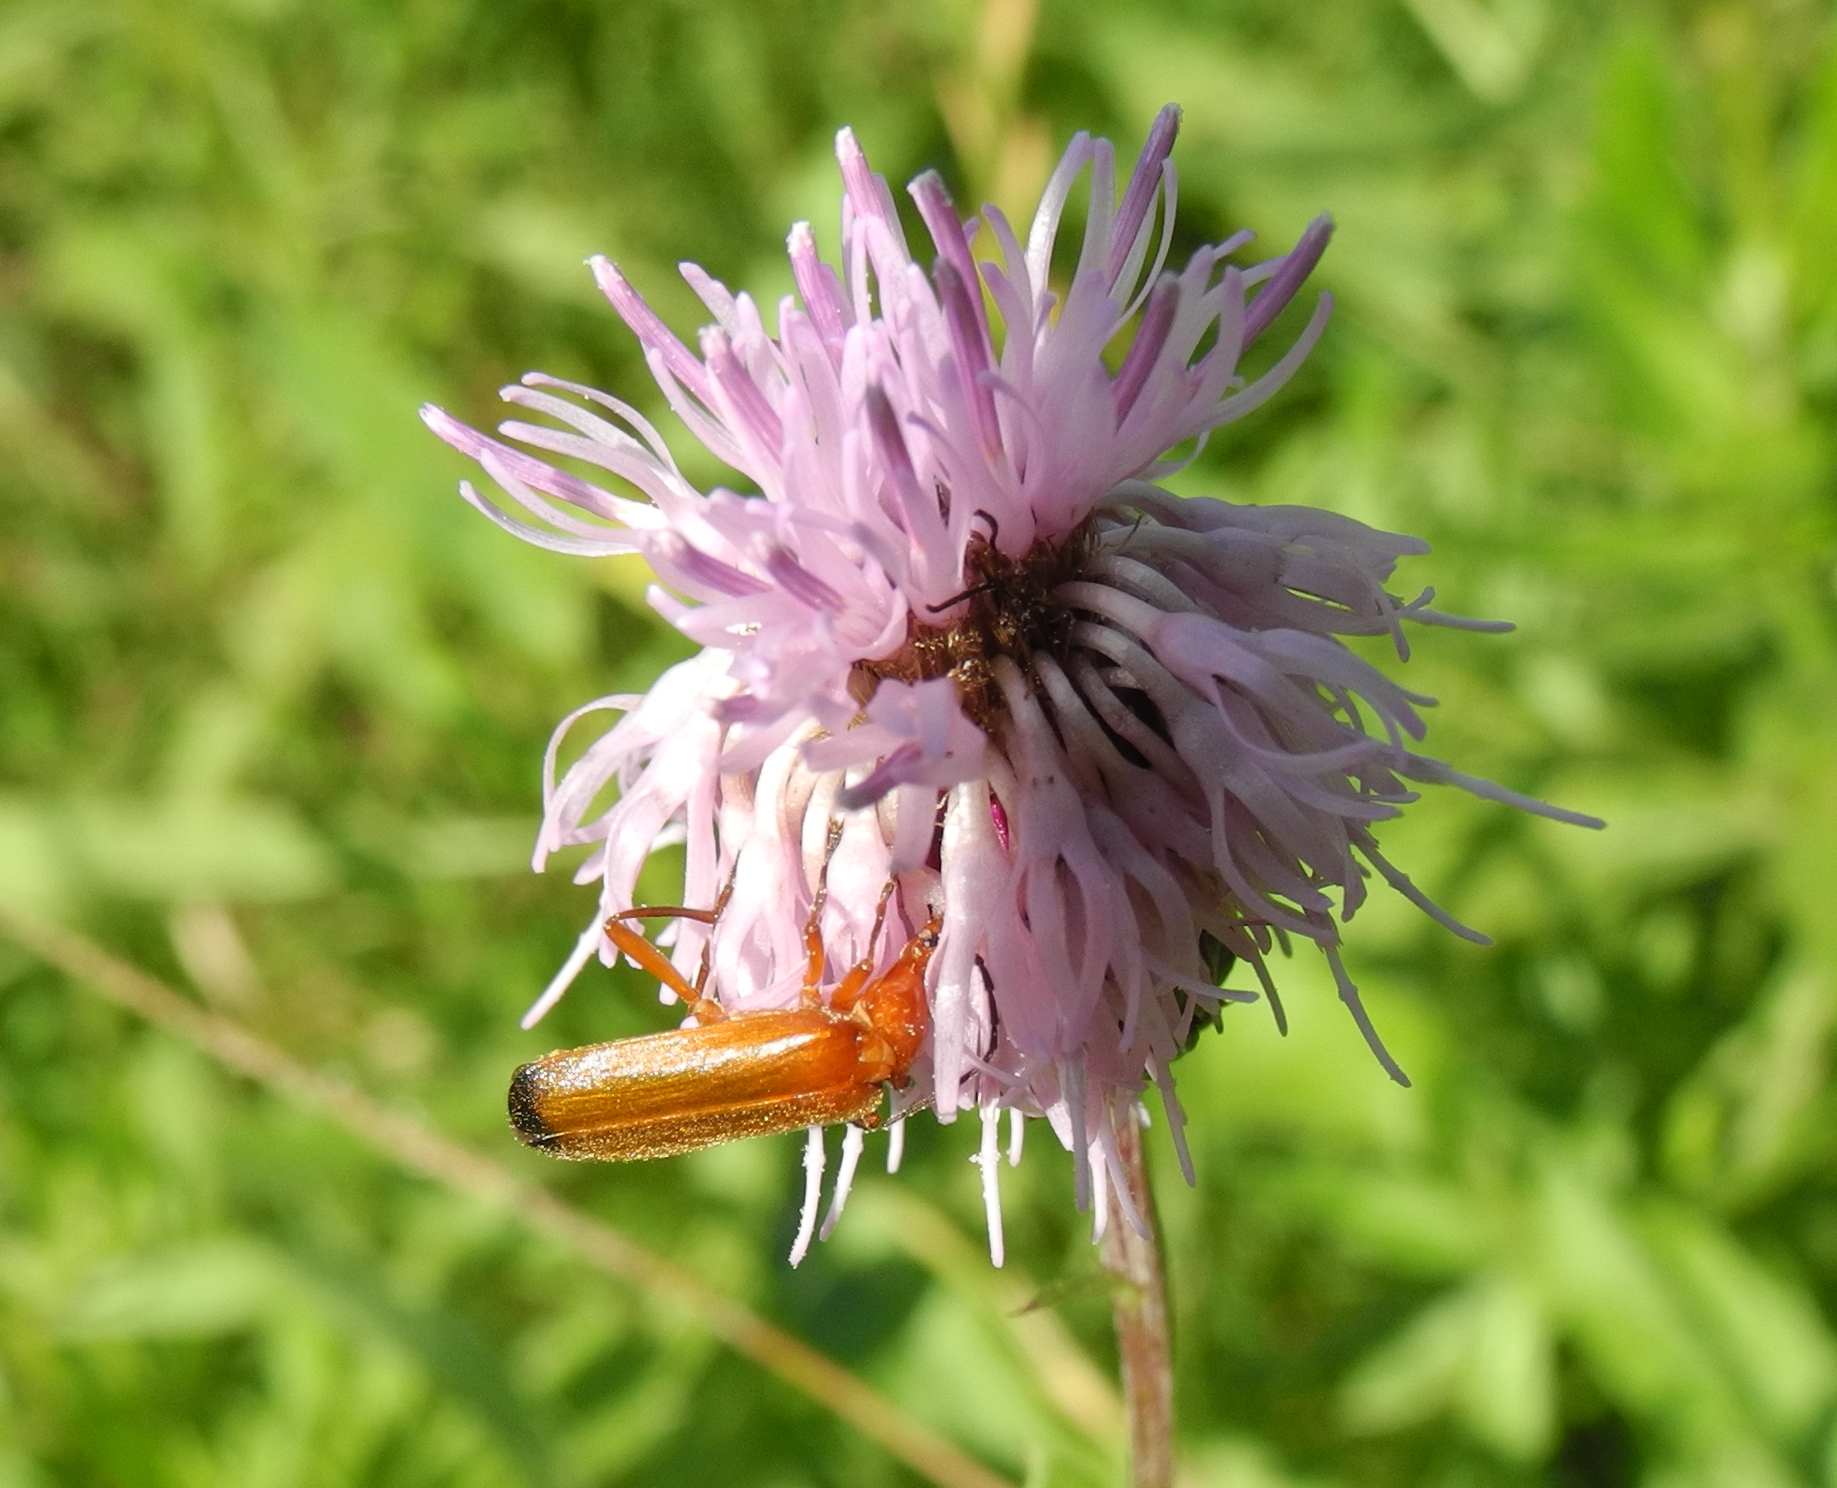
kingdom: Animalia
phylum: Arthropoda
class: Insecta
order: Coleoptera
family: Cantharidae
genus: Rhagonycha
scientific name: Rhagonycha fulva
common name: Common red soldier beetle
